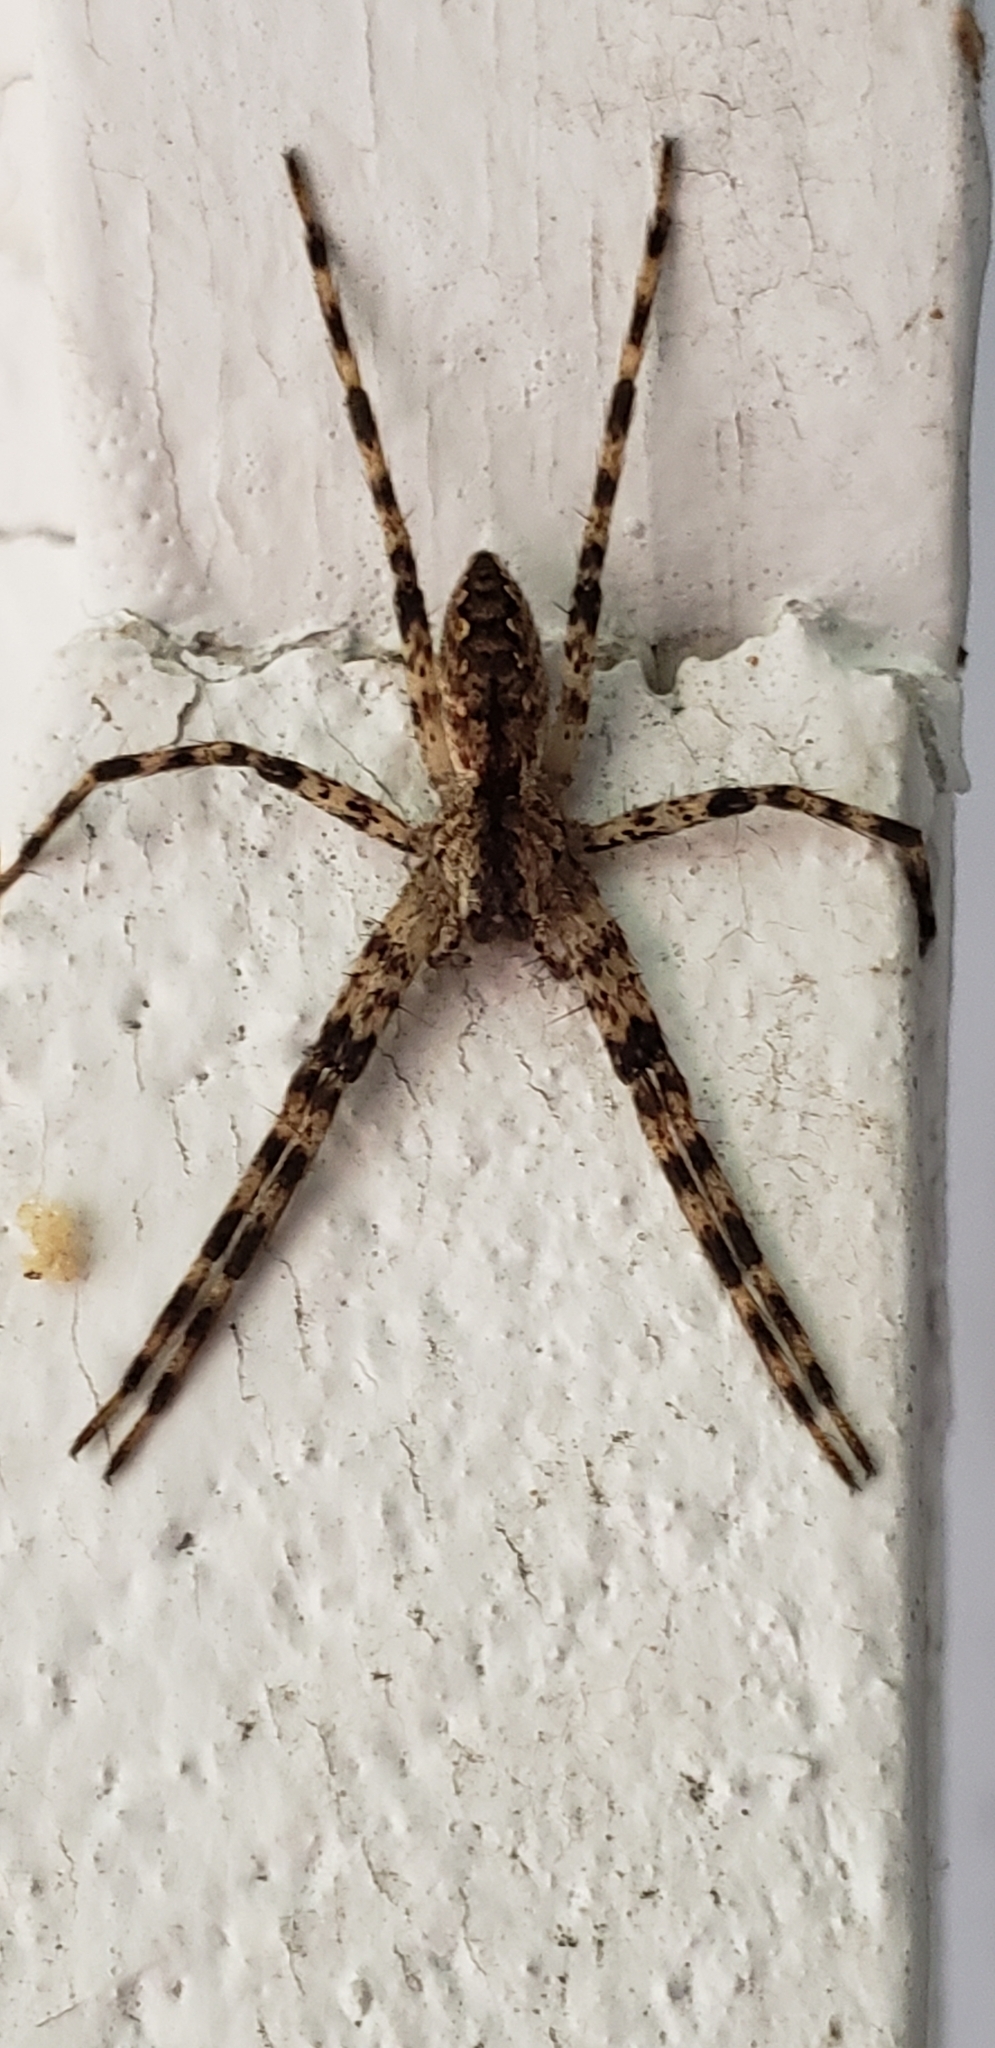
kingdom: Animalia
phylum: Arthropoda
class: Arachnida
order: Araneae
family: Pisauridae
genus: Pisaurina
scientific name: Pisaurina mira
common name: American nursery web spider
